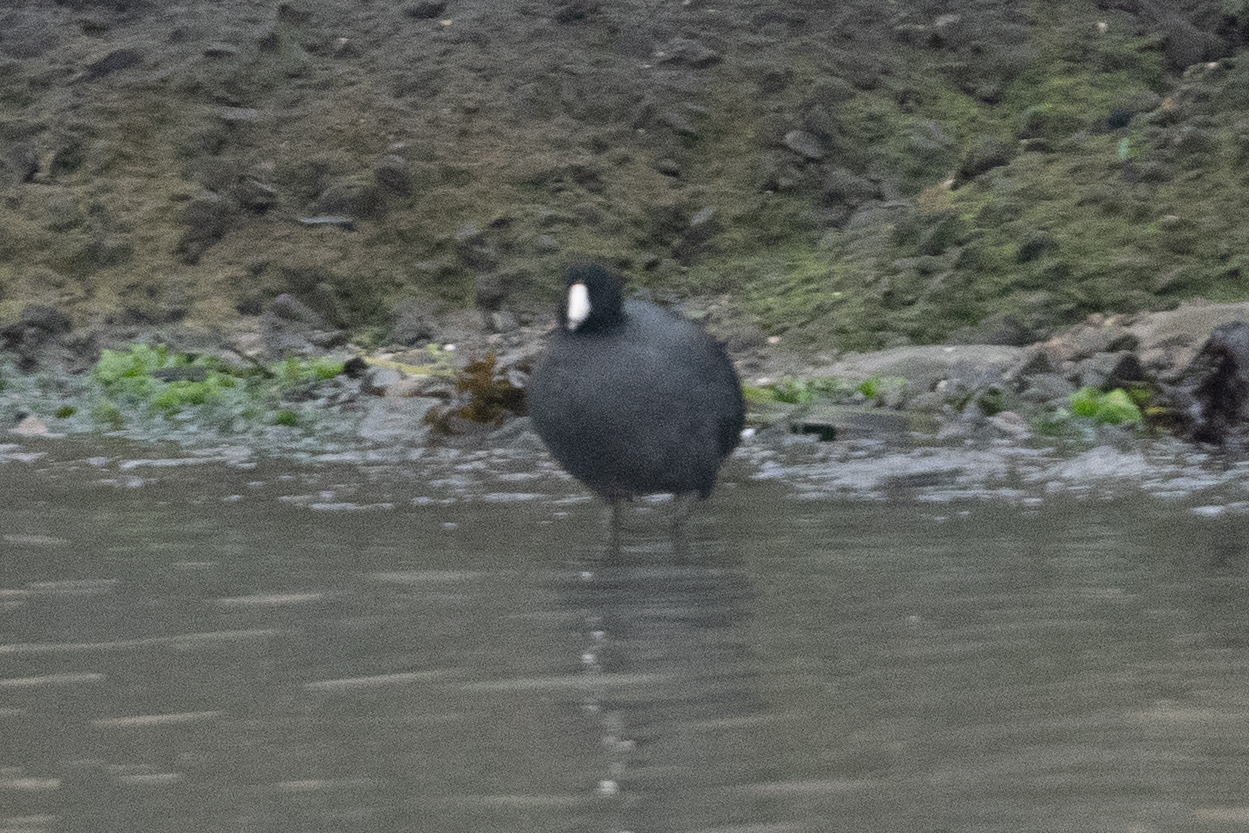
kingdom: Animalia
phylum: Chordata
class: Aves
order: Gruiformes
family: Rallidae
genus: Fulica
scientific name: Fulica americana
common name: American coot
